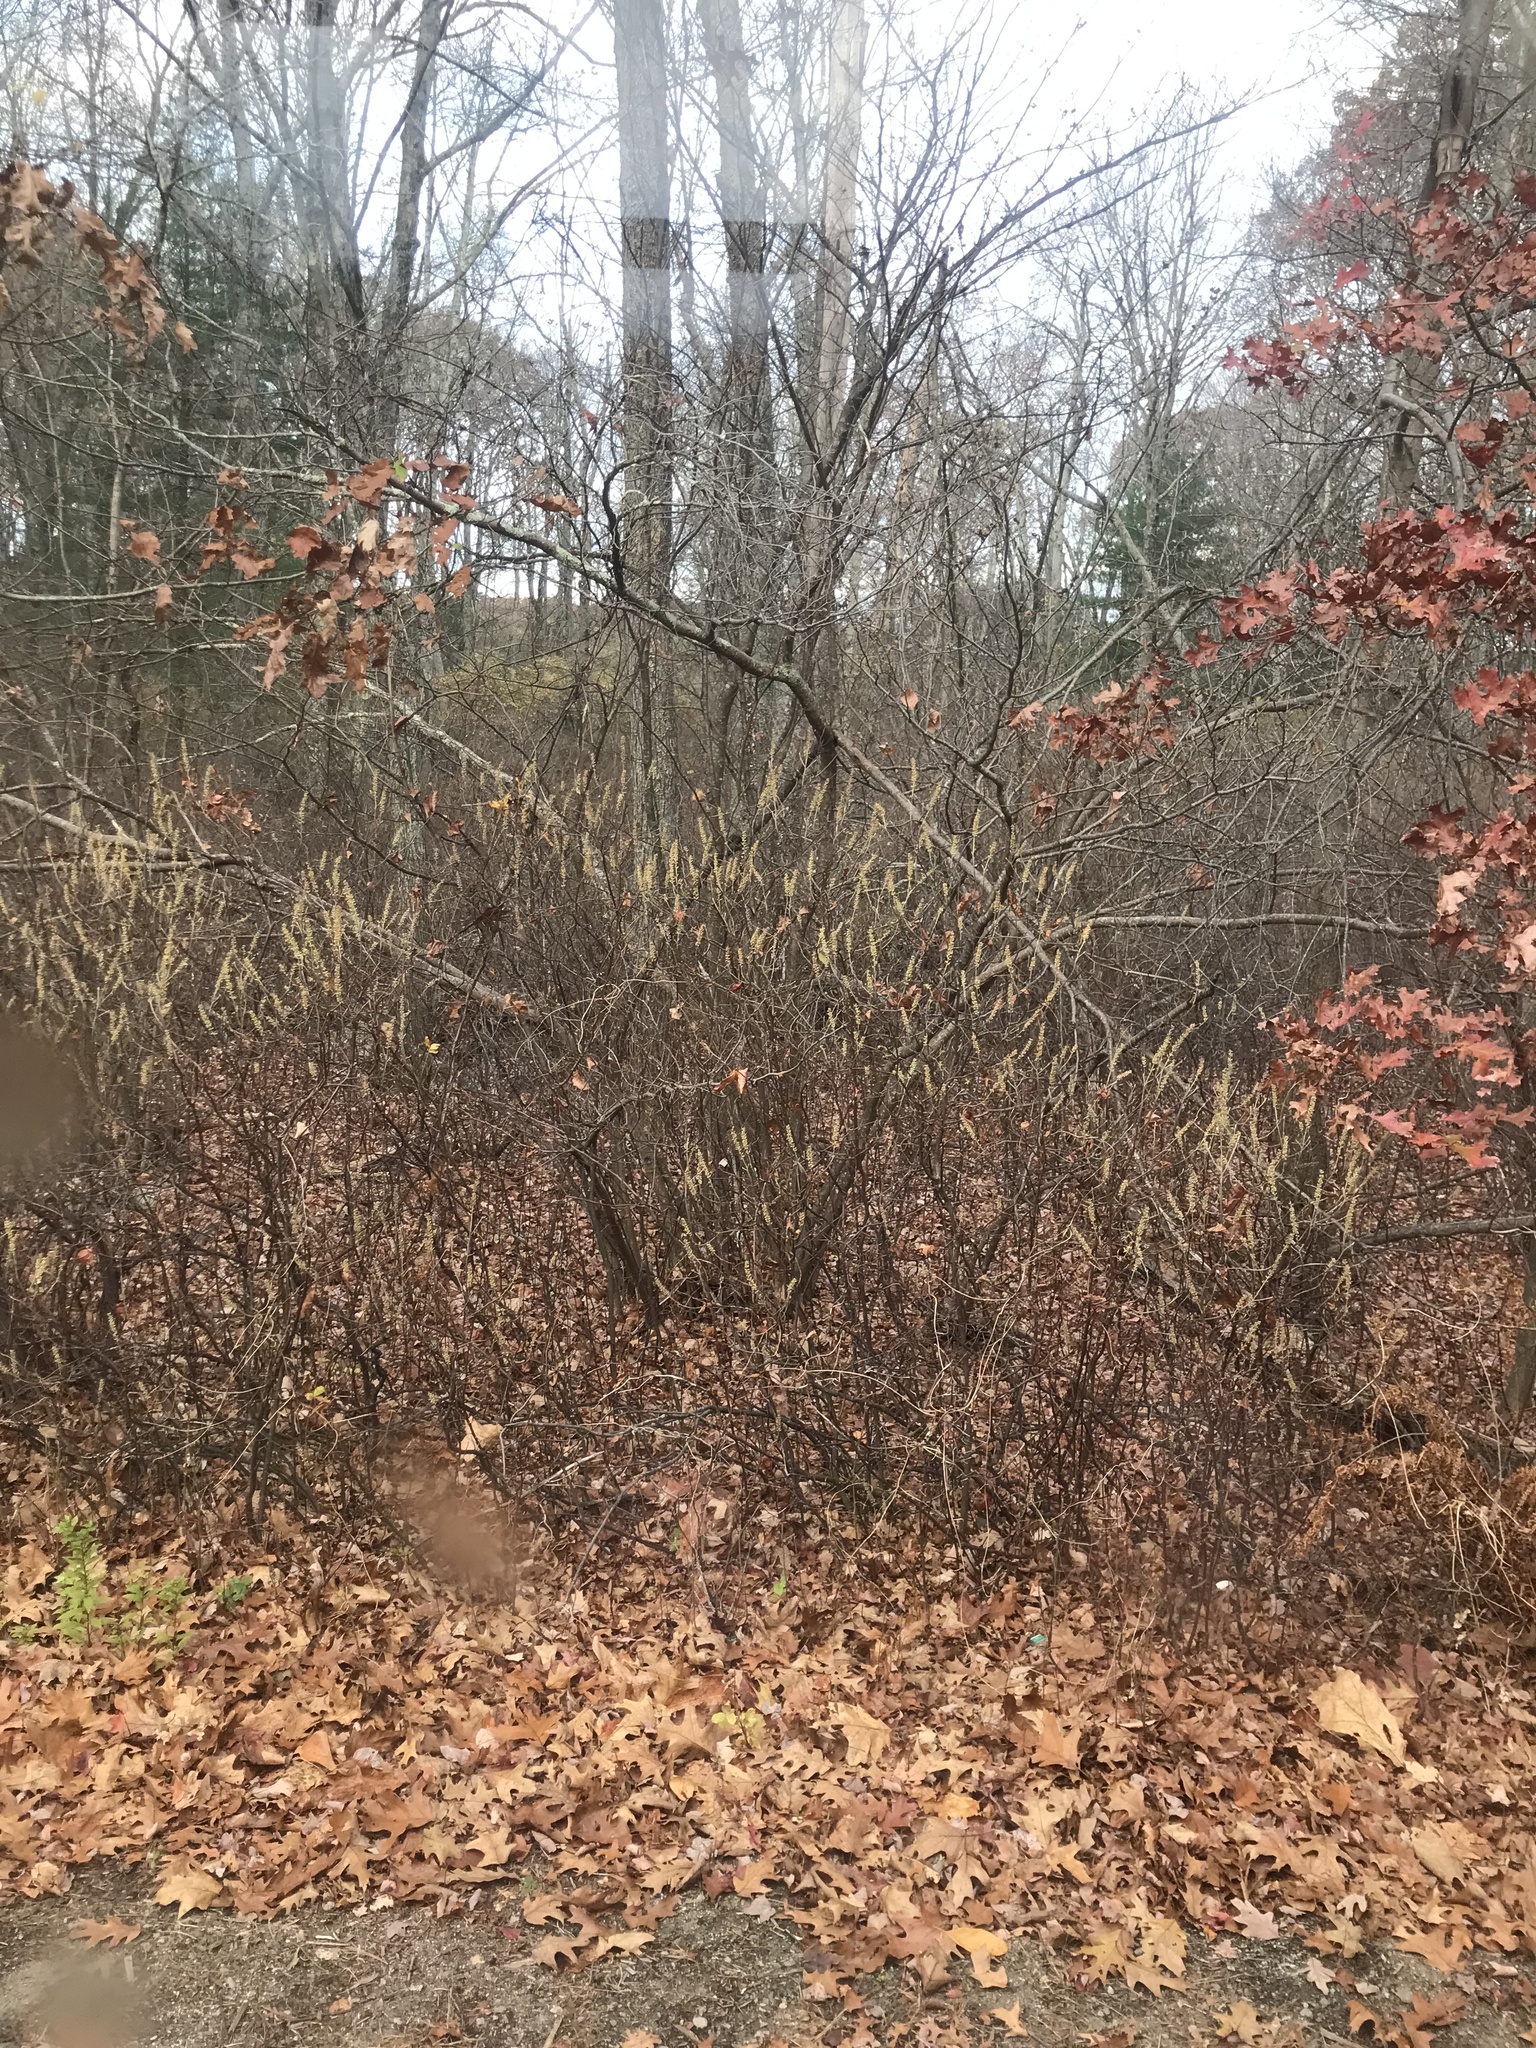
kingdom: Plantae
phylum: Tracheophyta
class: Magnoliopsida
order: Ericales
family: Clethraceae
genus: Clethra
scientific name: Clethra alnifolia
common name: Sweet pepperbush
